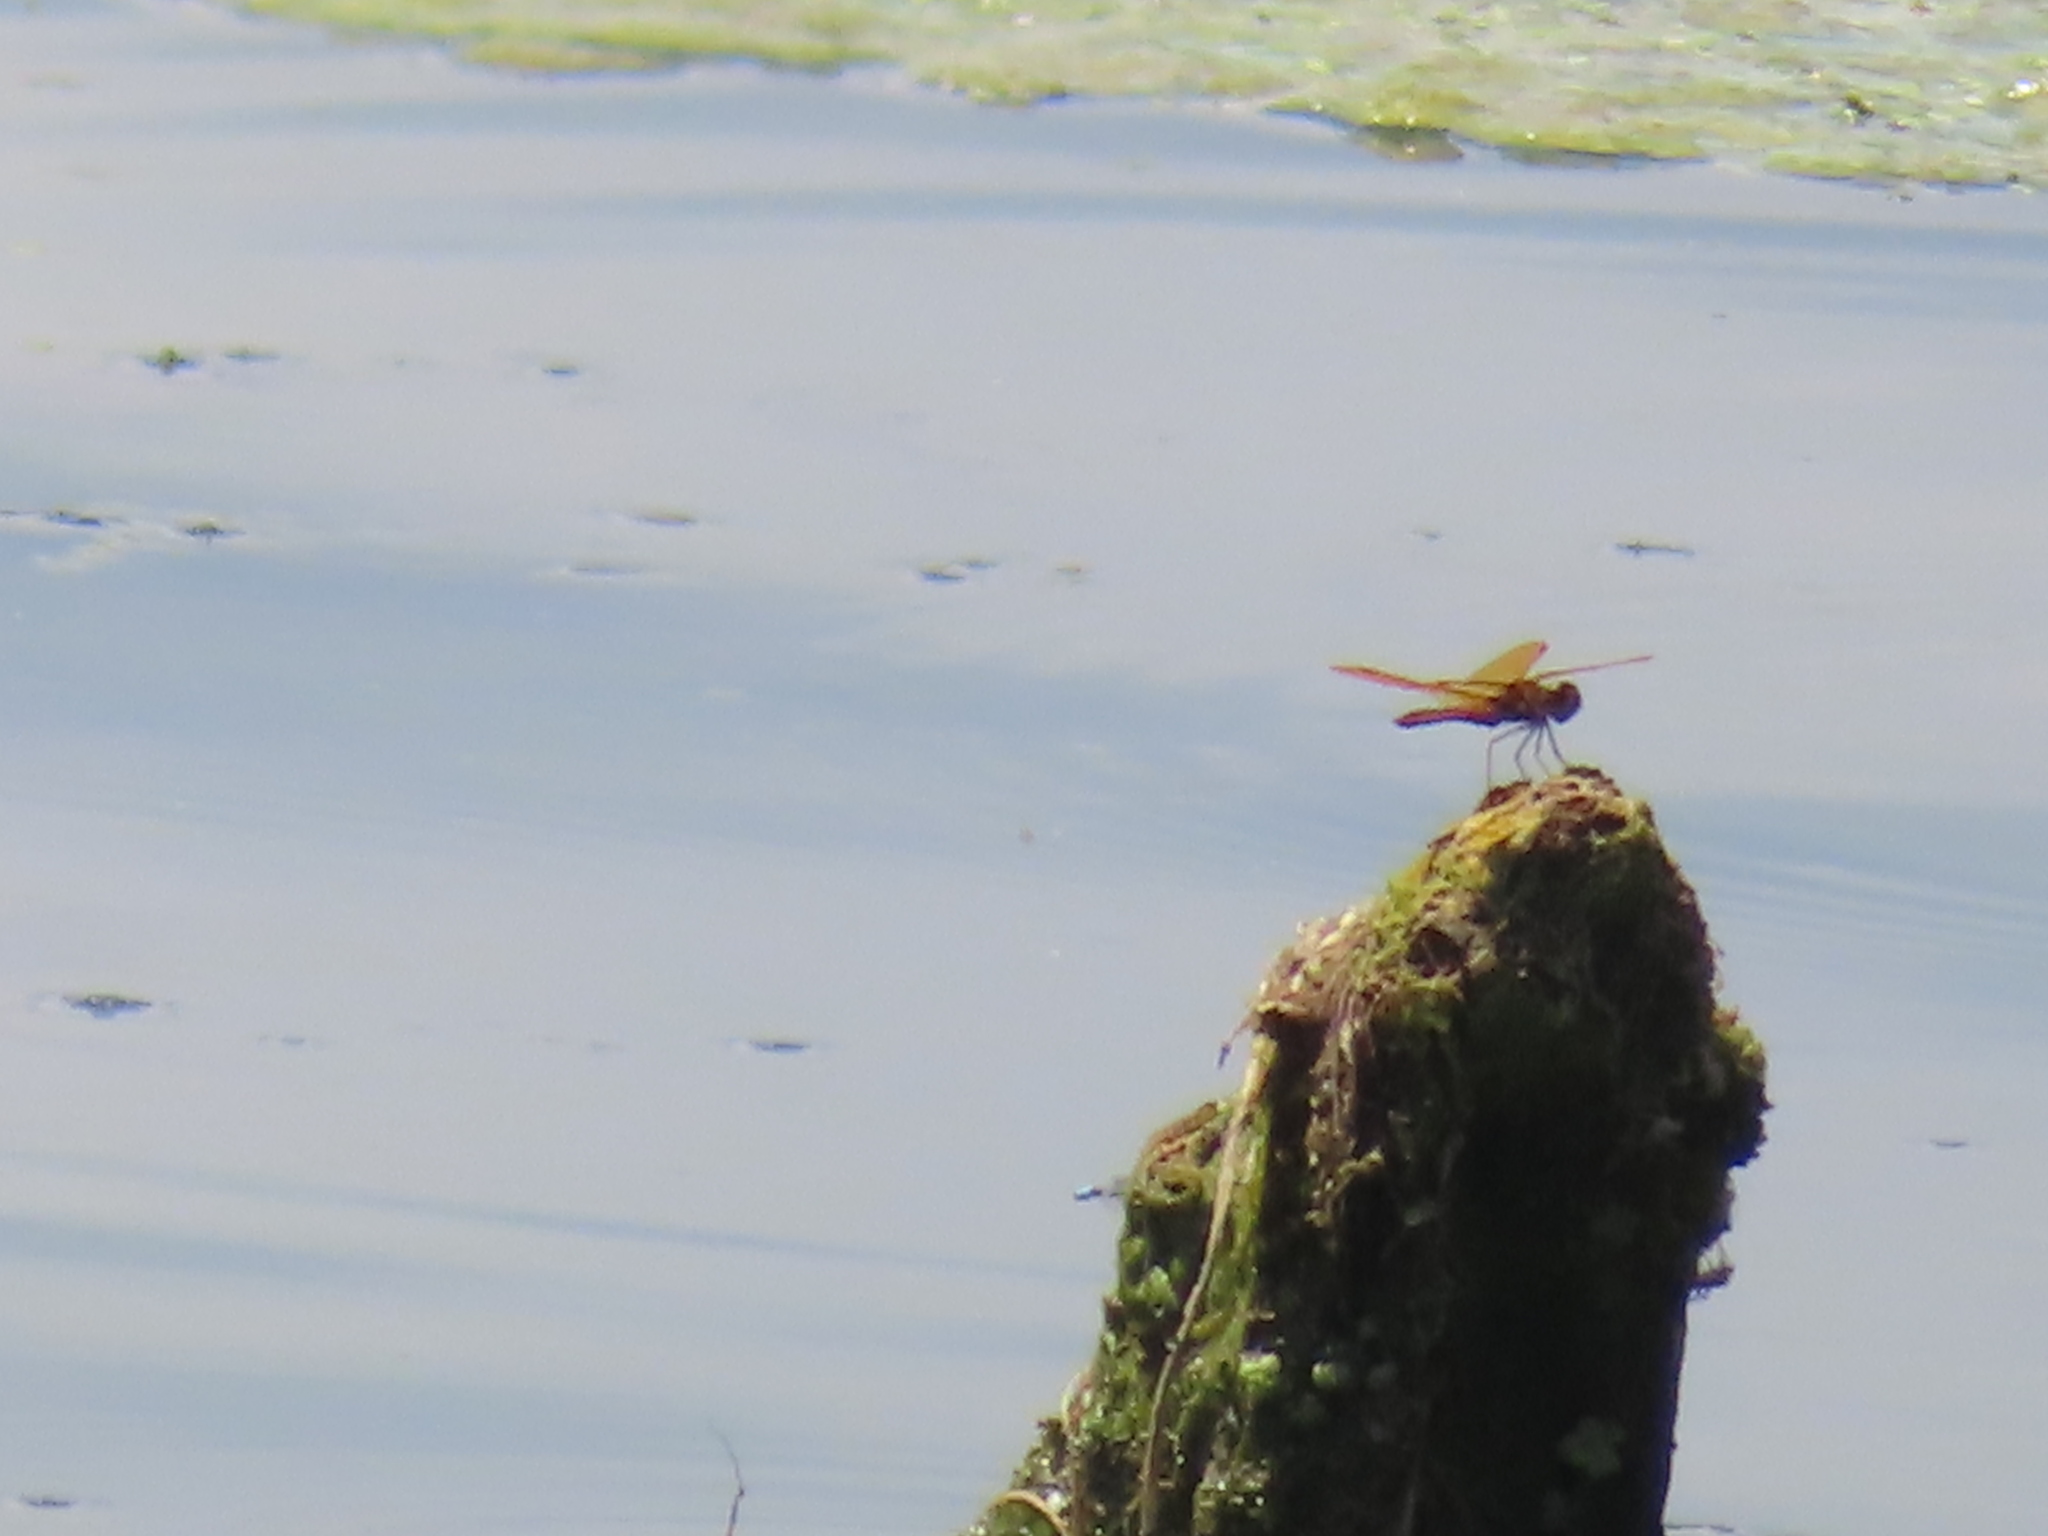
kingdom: Animalia
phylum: Arthropoda
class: Insecta
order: Odonata
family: Libellulidae
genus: Perithemis
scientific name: Perithemis tenera
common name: Eastern amberwing
